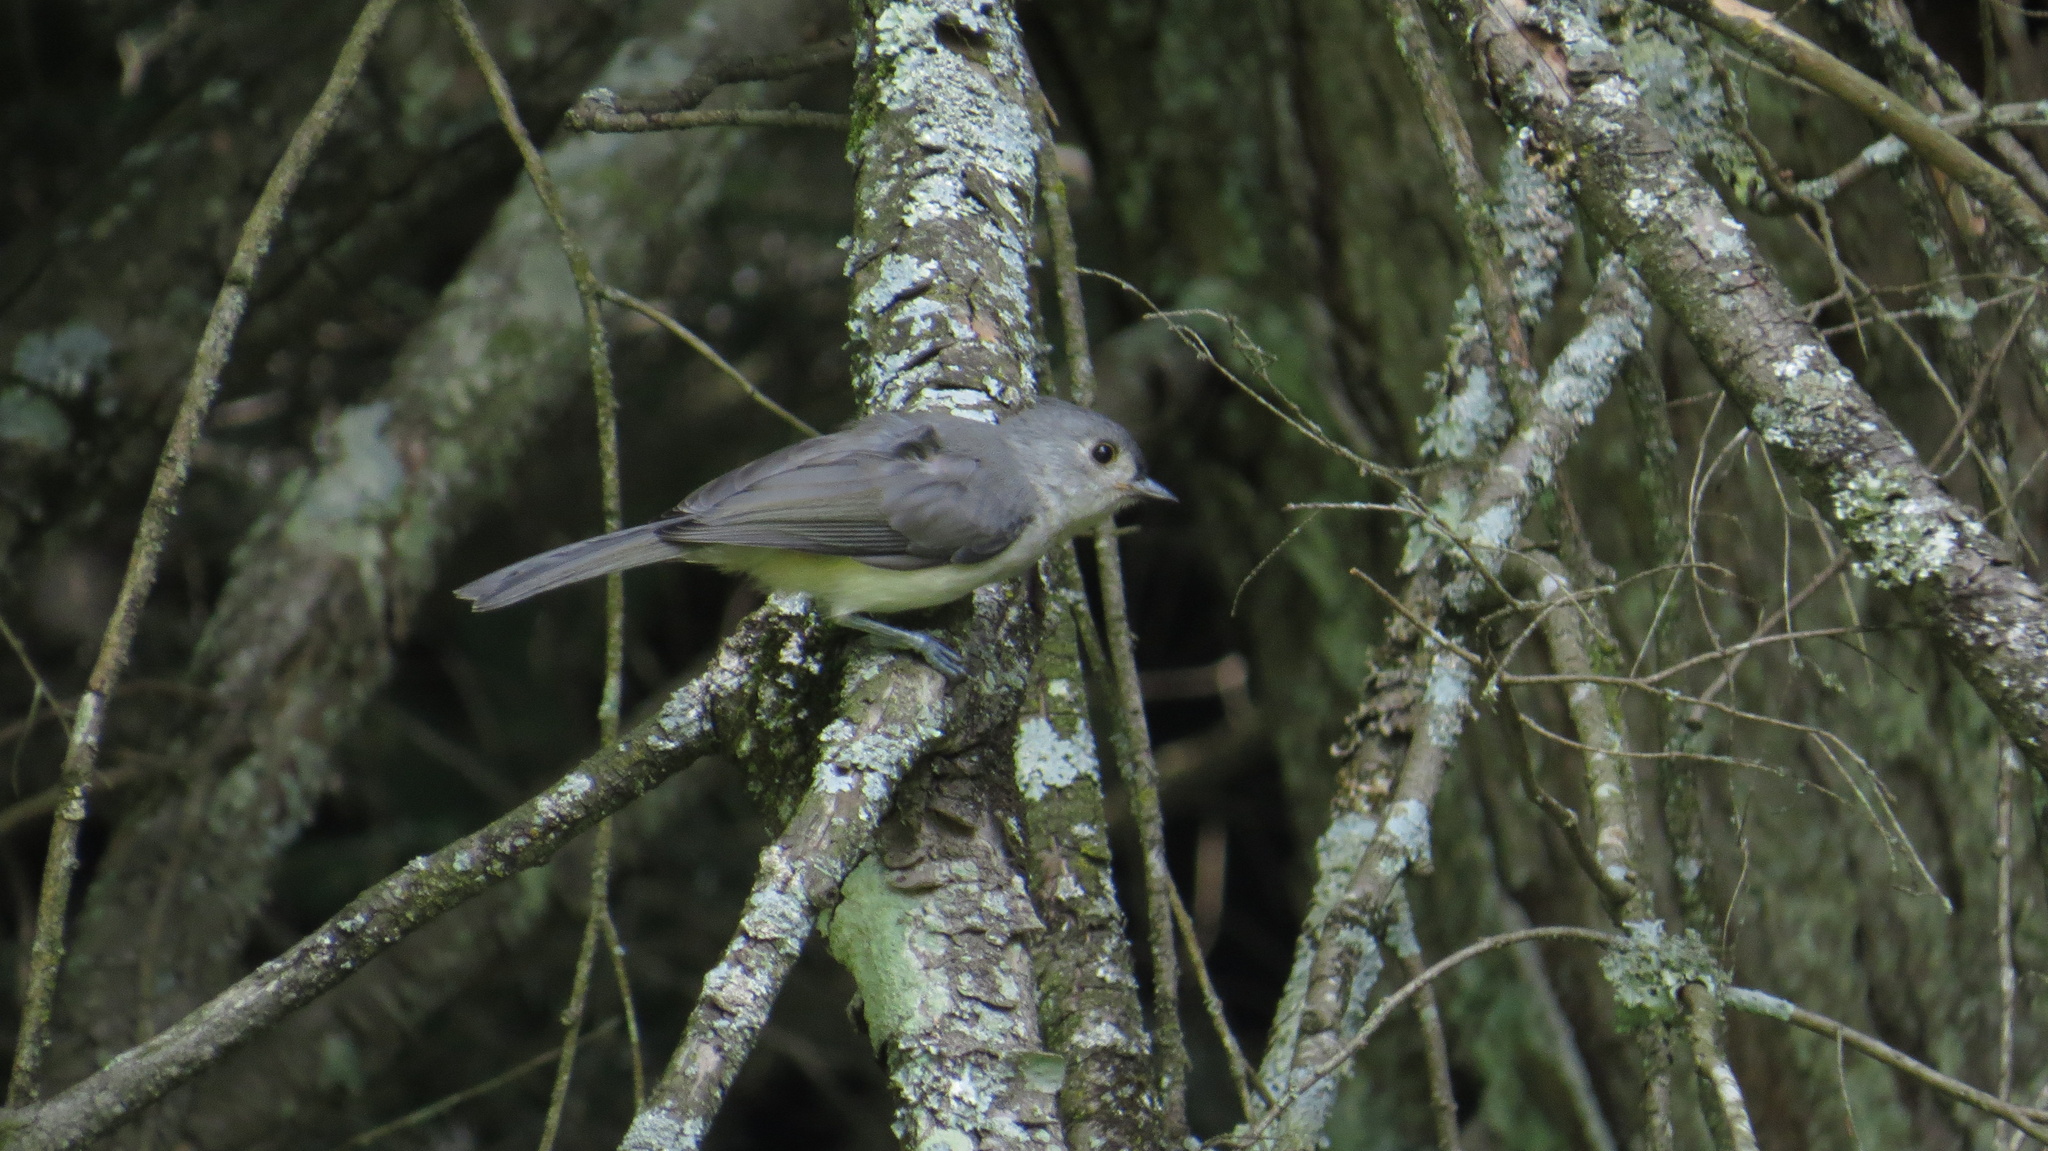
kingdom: Animalia
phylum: Chordata
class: Aves
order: Passeriformes
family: Paridae
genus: Baeolophus
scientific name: Baeolophus bicolor
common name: Tufted titmouse
